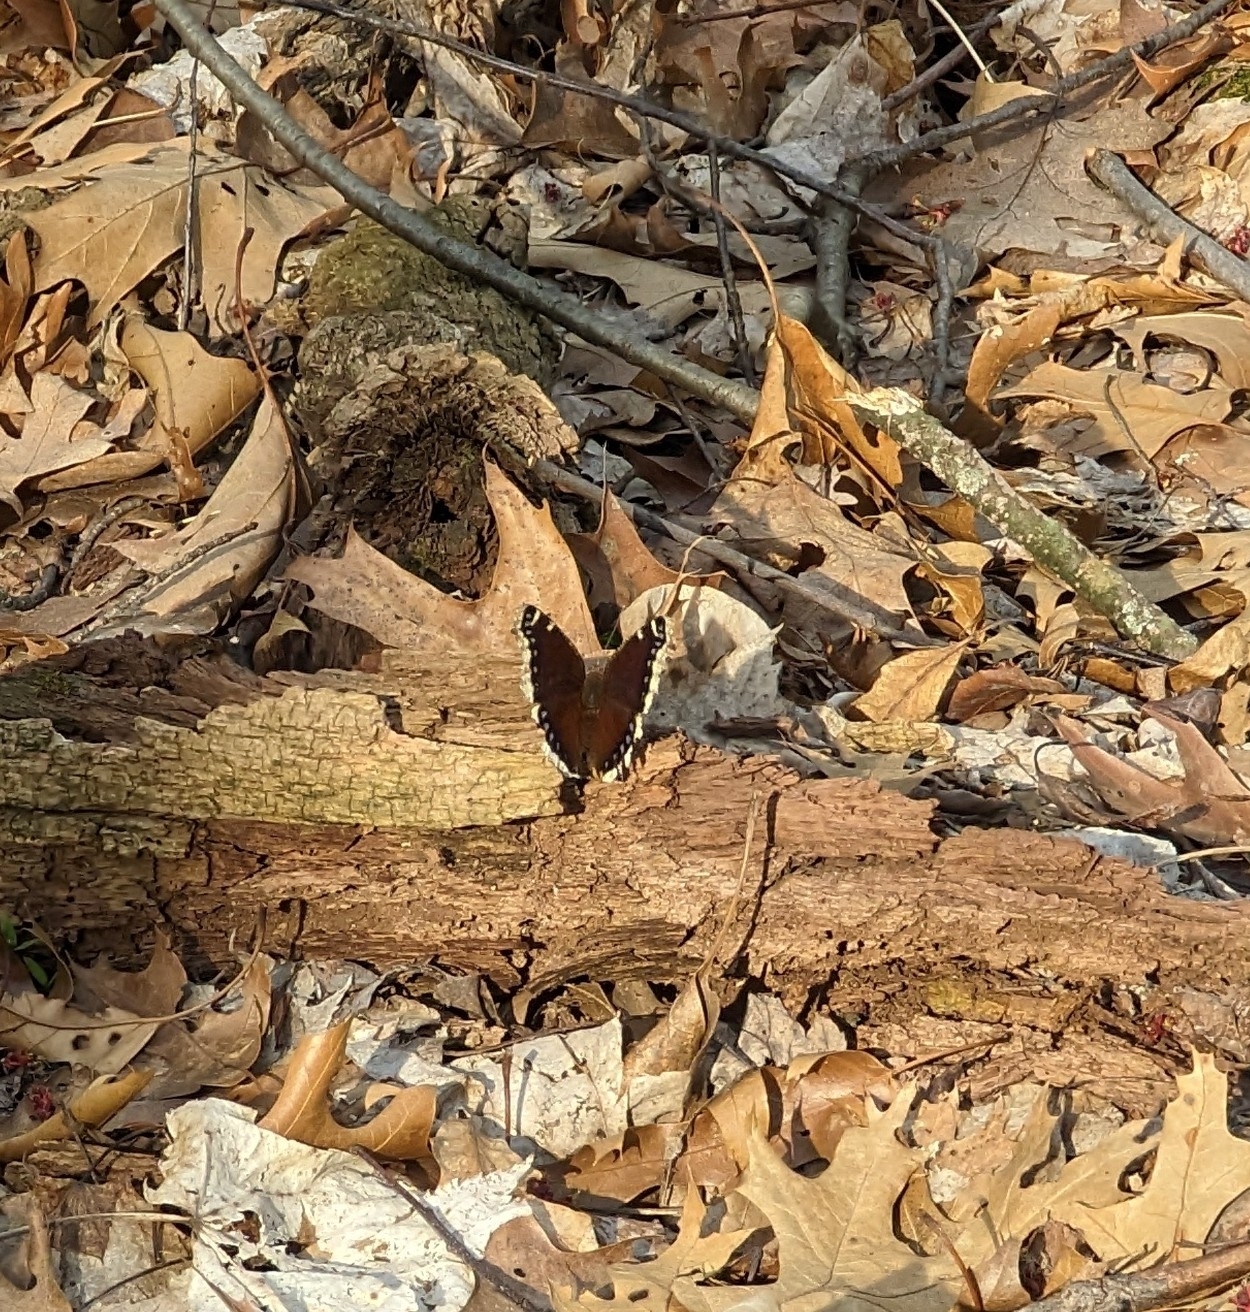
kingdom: Animalia
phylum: Arthropoda
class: Insecta
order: Lepidoptera
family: Nymphalidae
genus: Nymphalis
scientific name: Nymphalis antiopa
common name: Camberwell beauty
